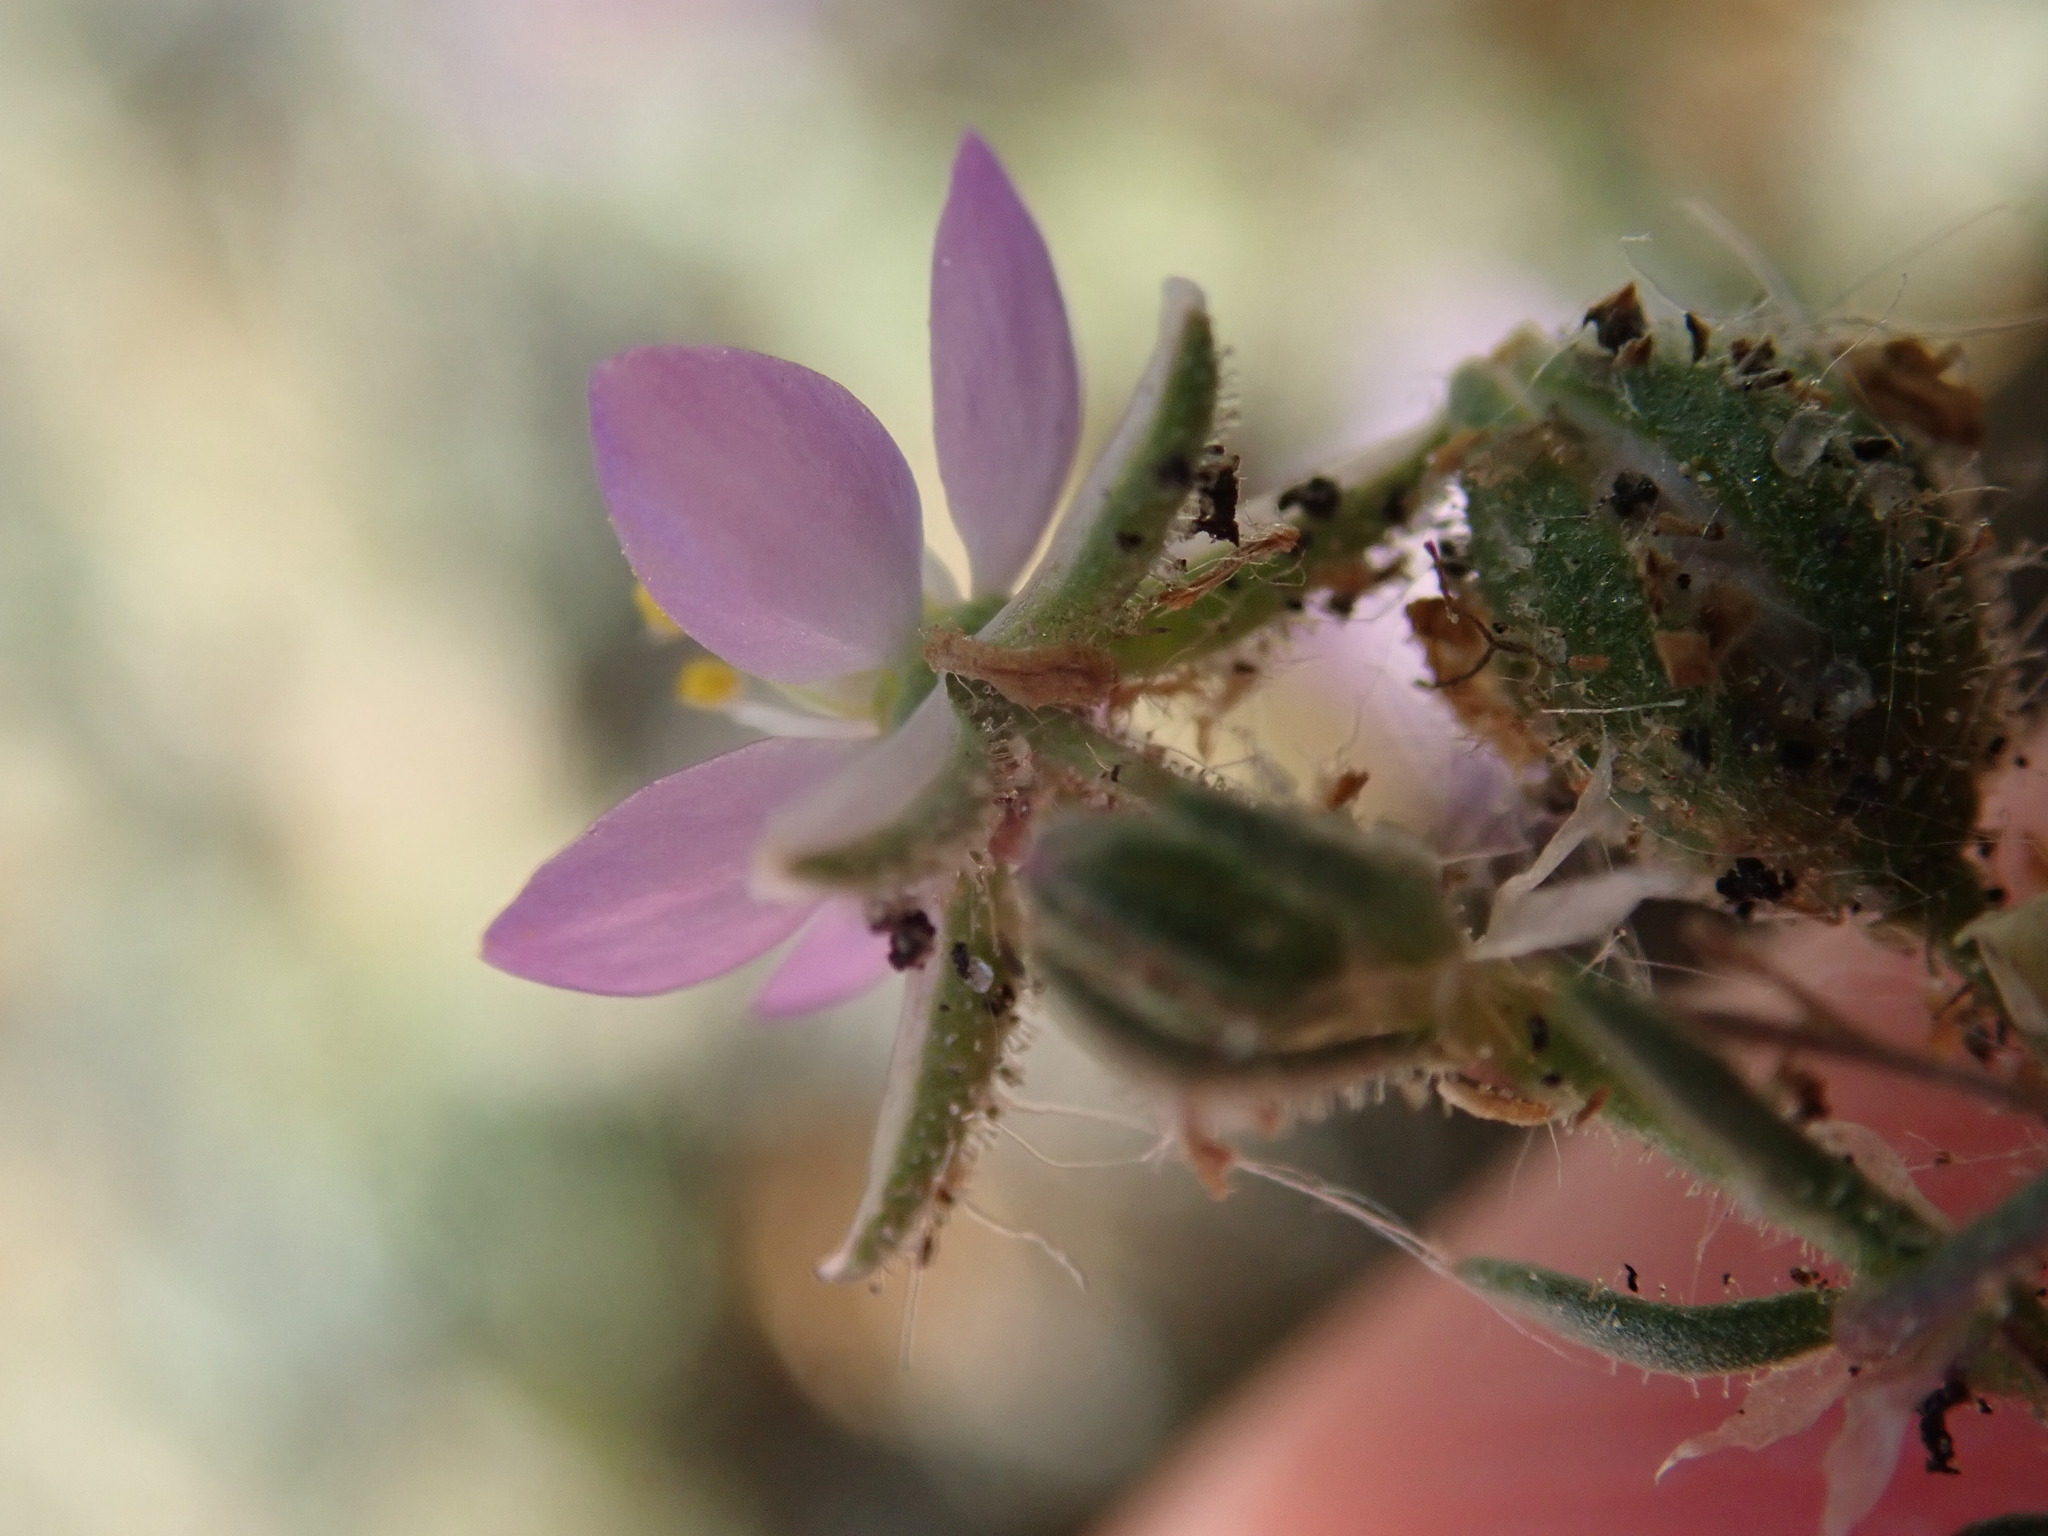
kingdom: Plantae
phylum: Tracheophyta
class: Magnoliopsida
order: Caryophyllales
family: Caryophyllaceae
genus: Spergularia
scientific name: Spergularia rubra
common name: Red sand-spurrey
